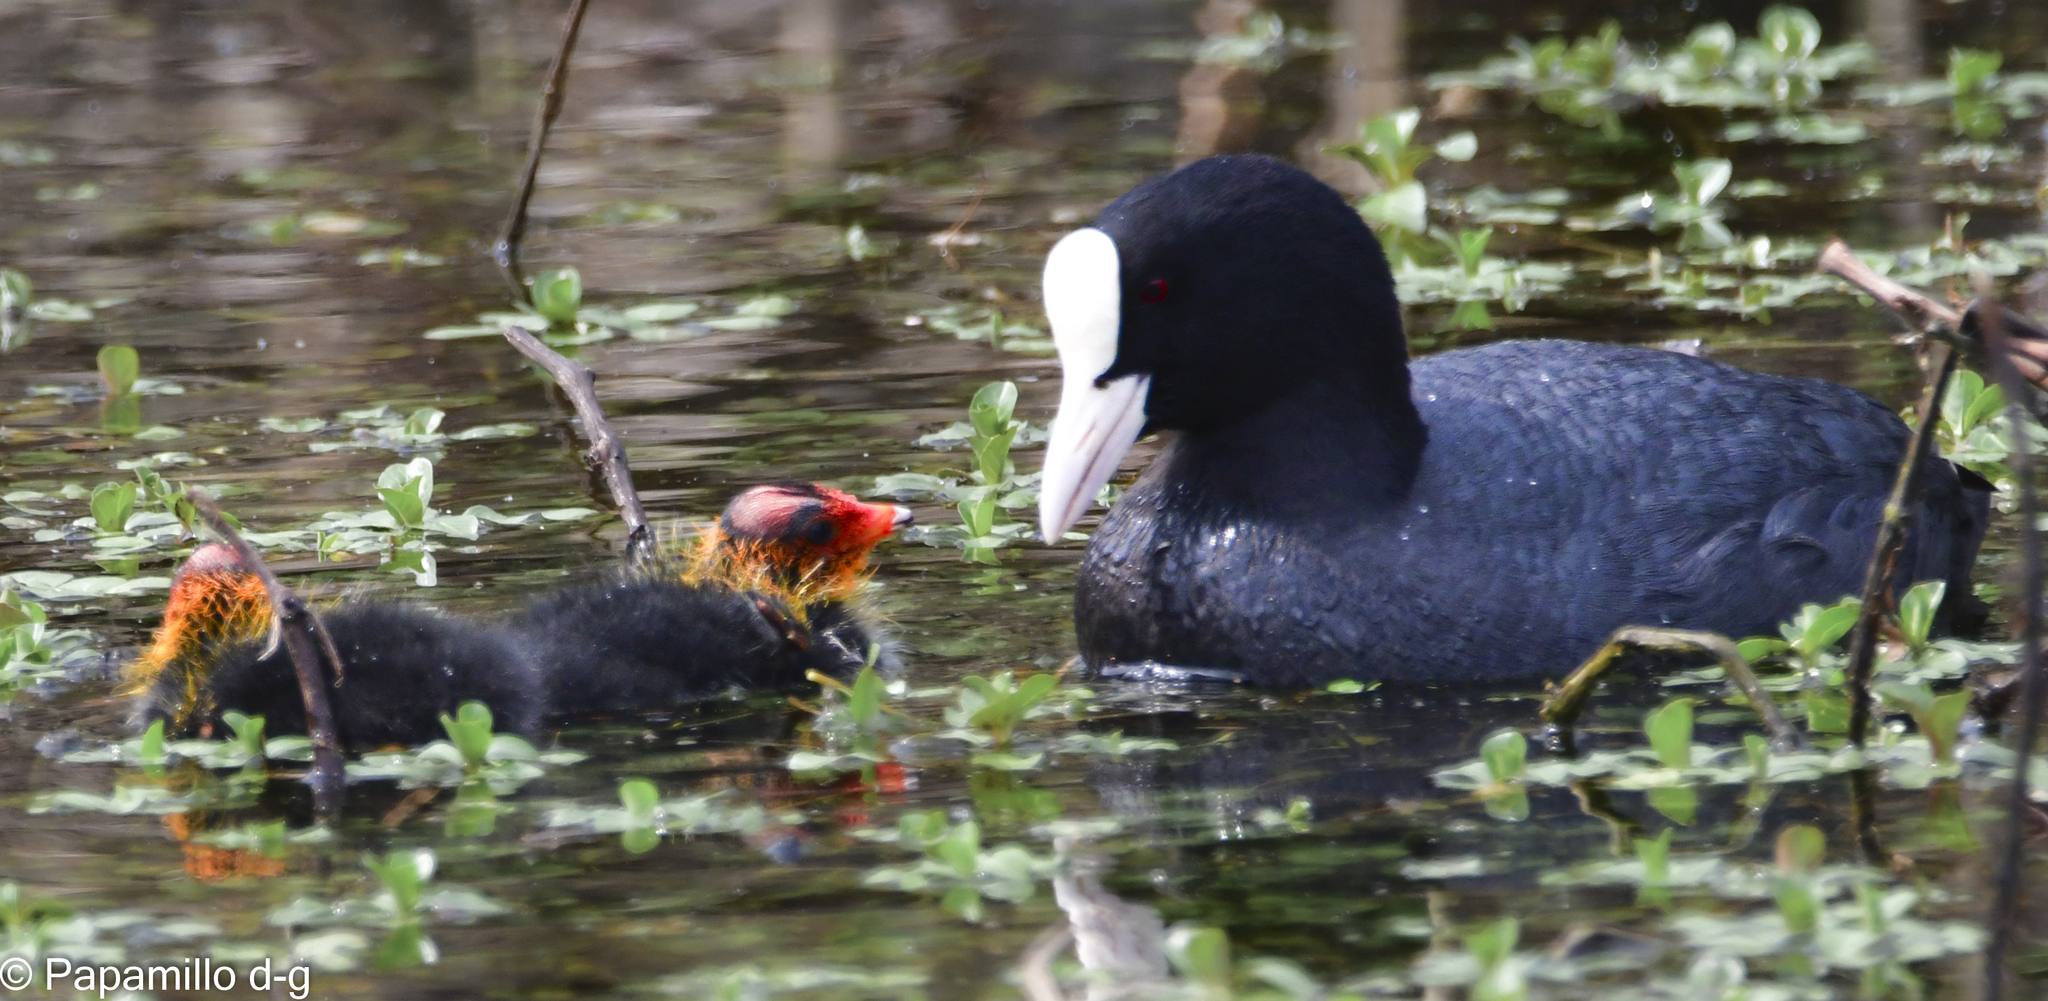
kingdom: Animalia
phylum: Chordata
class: Aves
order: Gruiformes
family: Rallidae
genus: Fulica
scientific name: Fulica atra
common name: Eurasian coot
